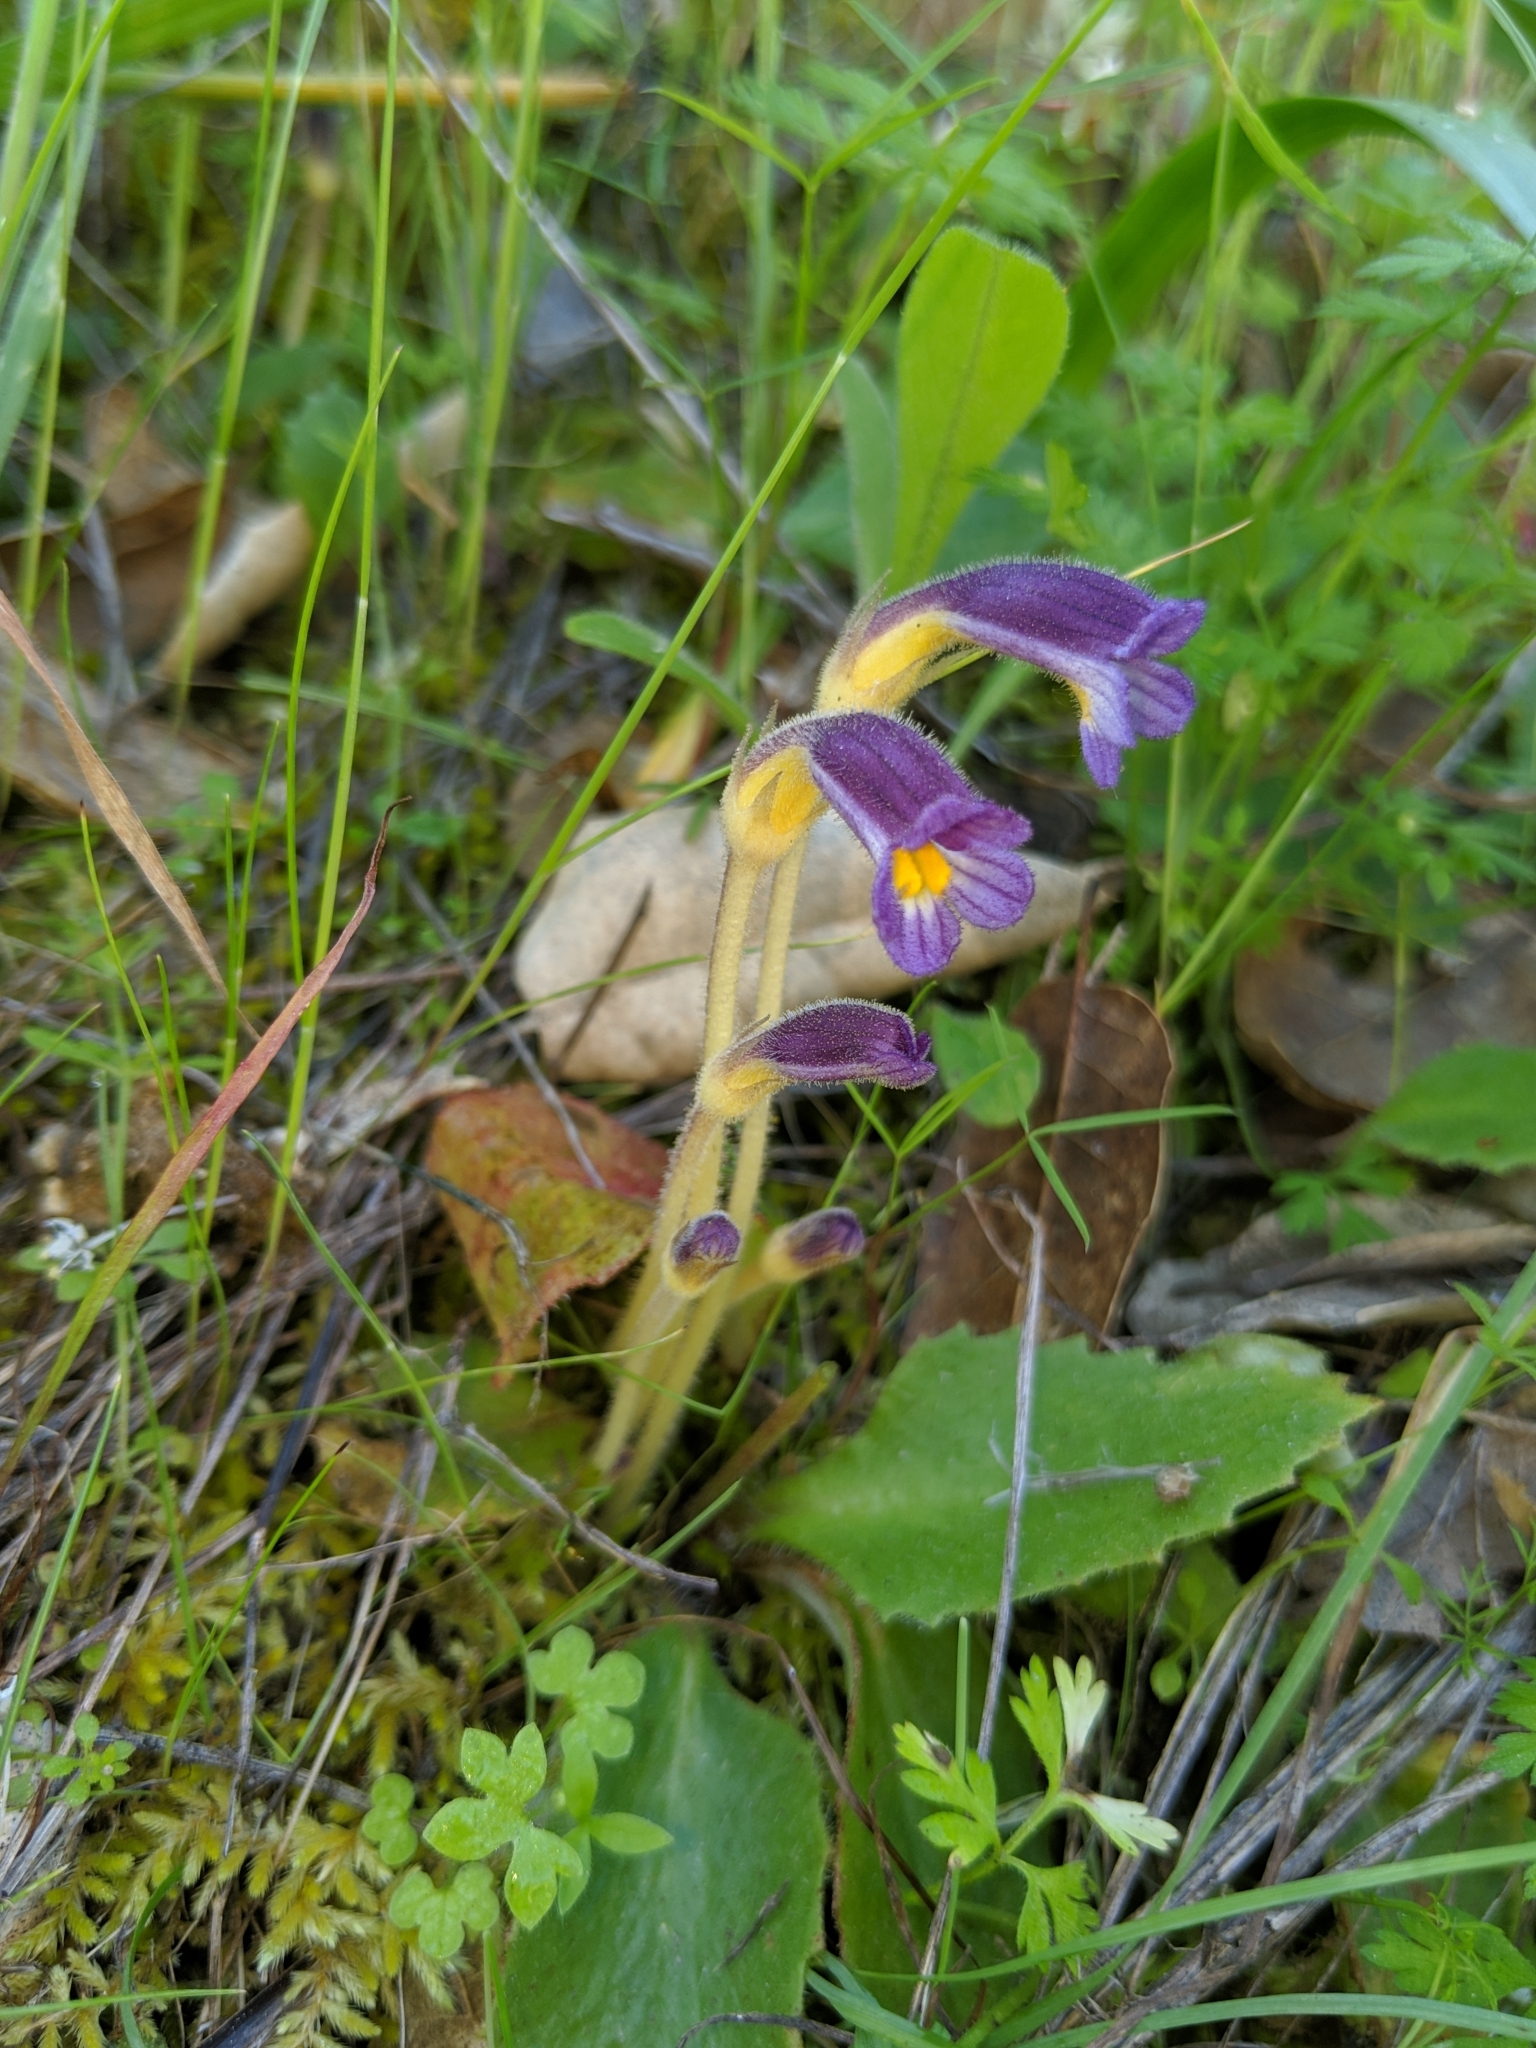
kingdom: Plantae
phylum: Tracheophyta
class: Magnoliopsida
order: Lamiales
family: Orobanchaceae
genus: Aphyllon
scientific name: Aphyllon uniflorum
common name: One-flowered broomrape
